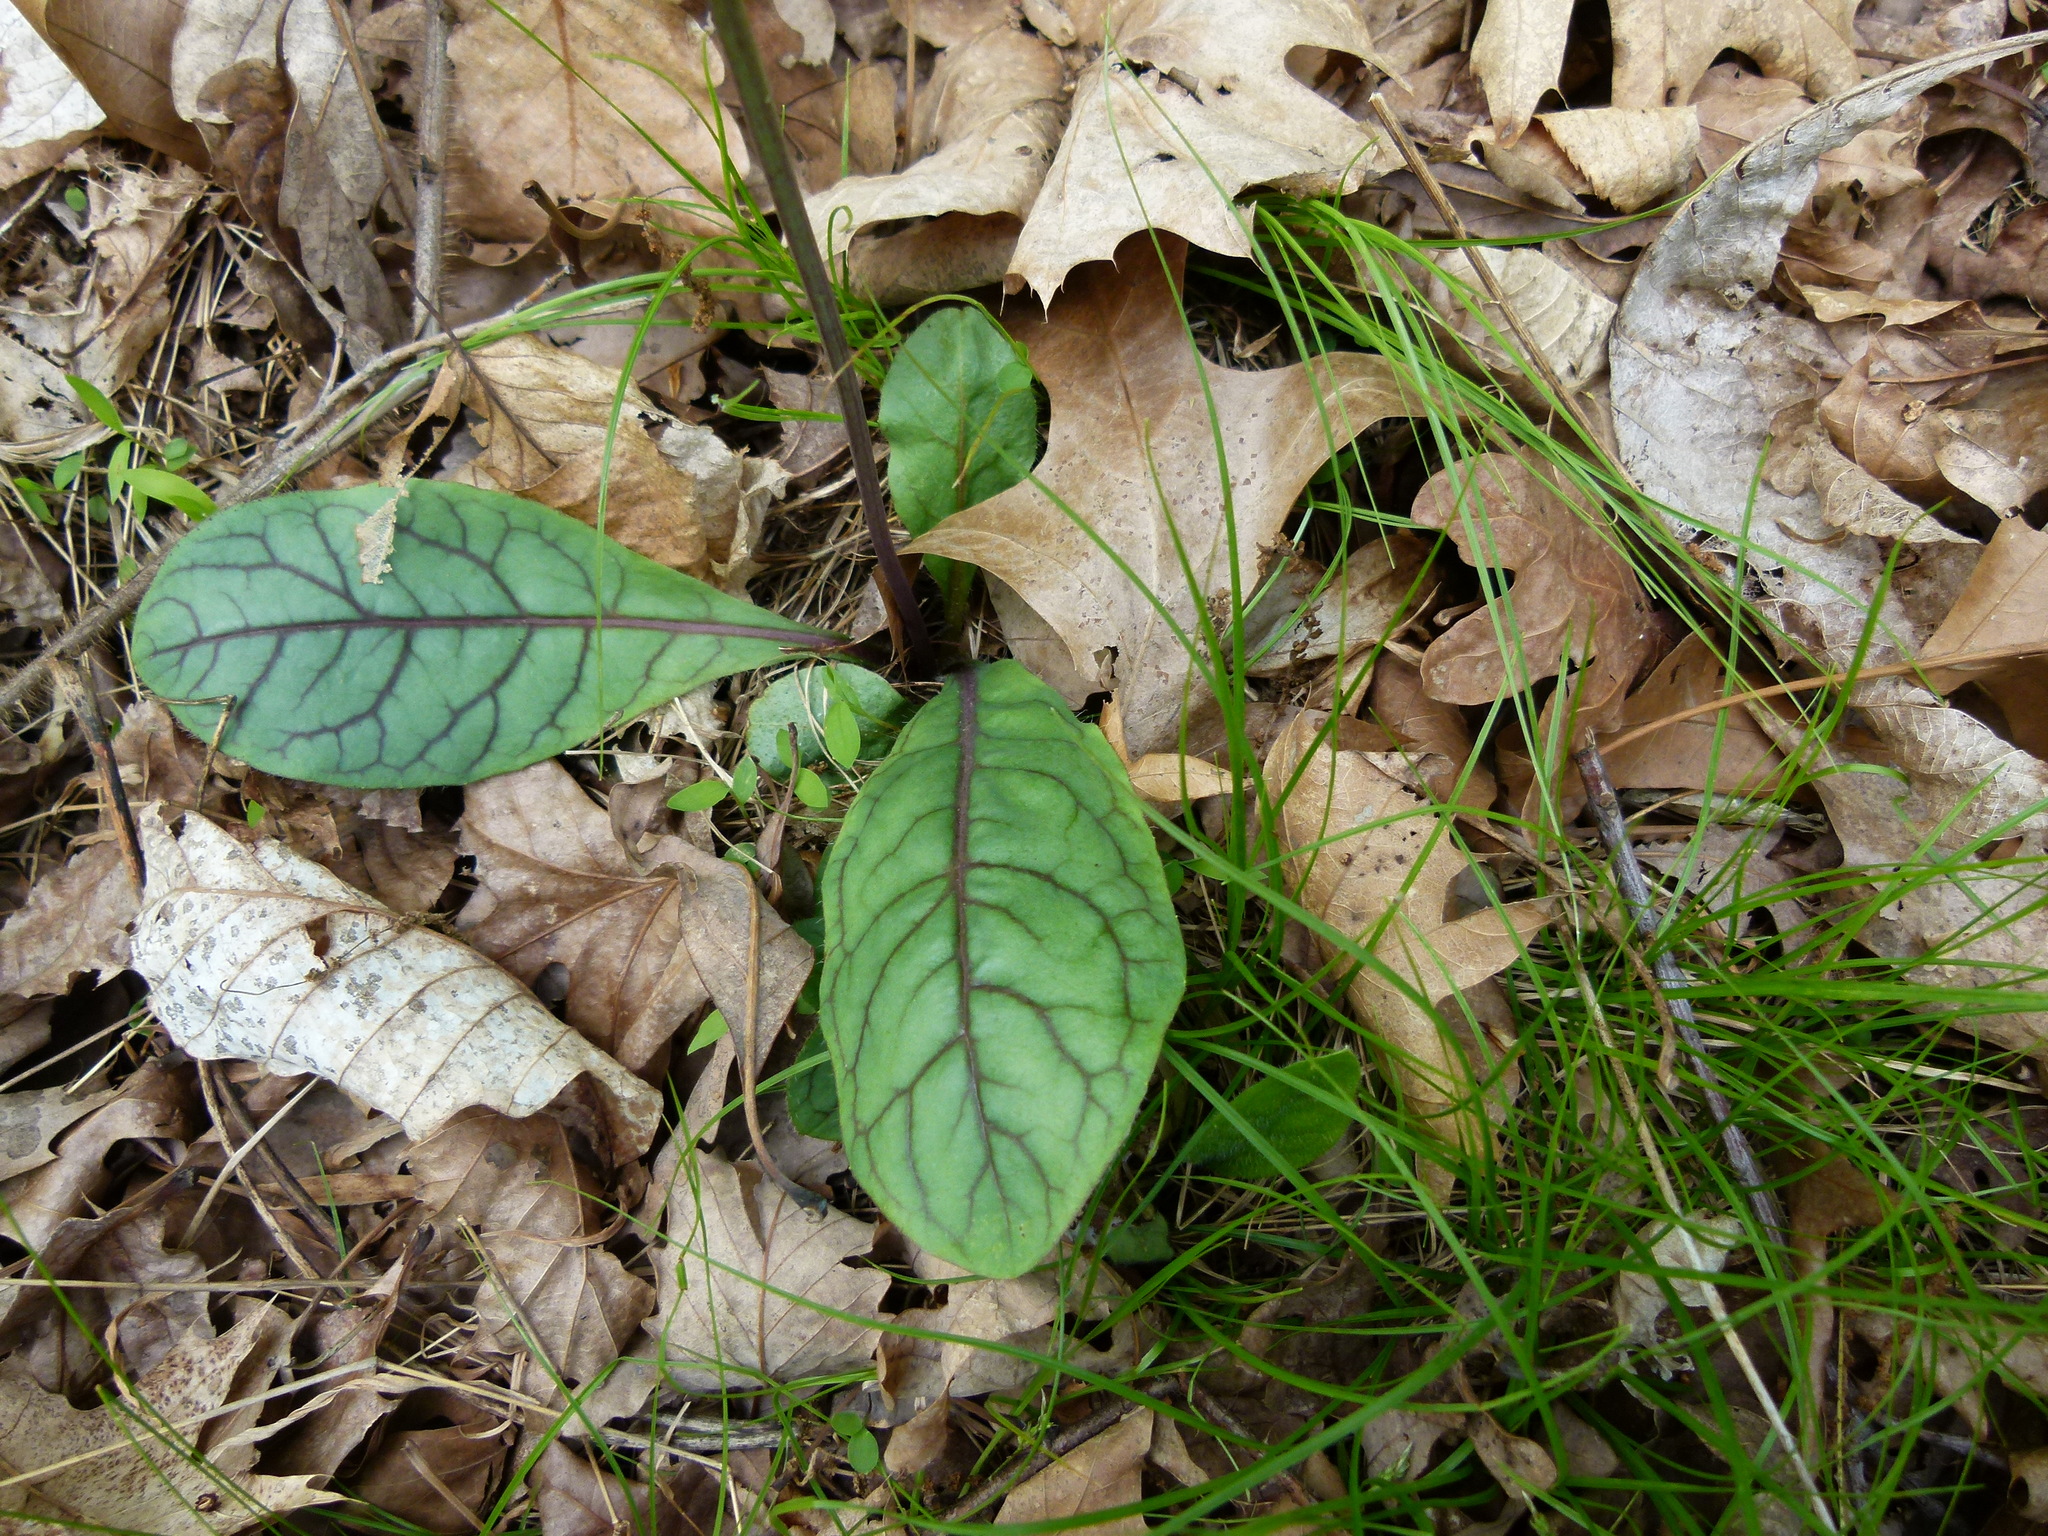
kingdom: Plantae
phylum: Tracheophyta
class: Magnoliopsida
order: Asterales
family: Asteraceae
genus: Hieracium
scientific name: Hieracium venosum
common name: Rattlesnake hawkweed
